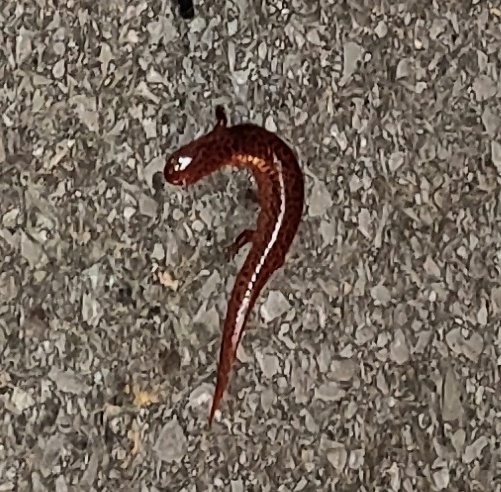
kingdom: Animalia
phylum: Chordata
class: Amphibia
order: Caudata
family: Plethodontidae
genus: Pseudotriton
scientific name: Pseudotriton ruber
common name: Red salamander
